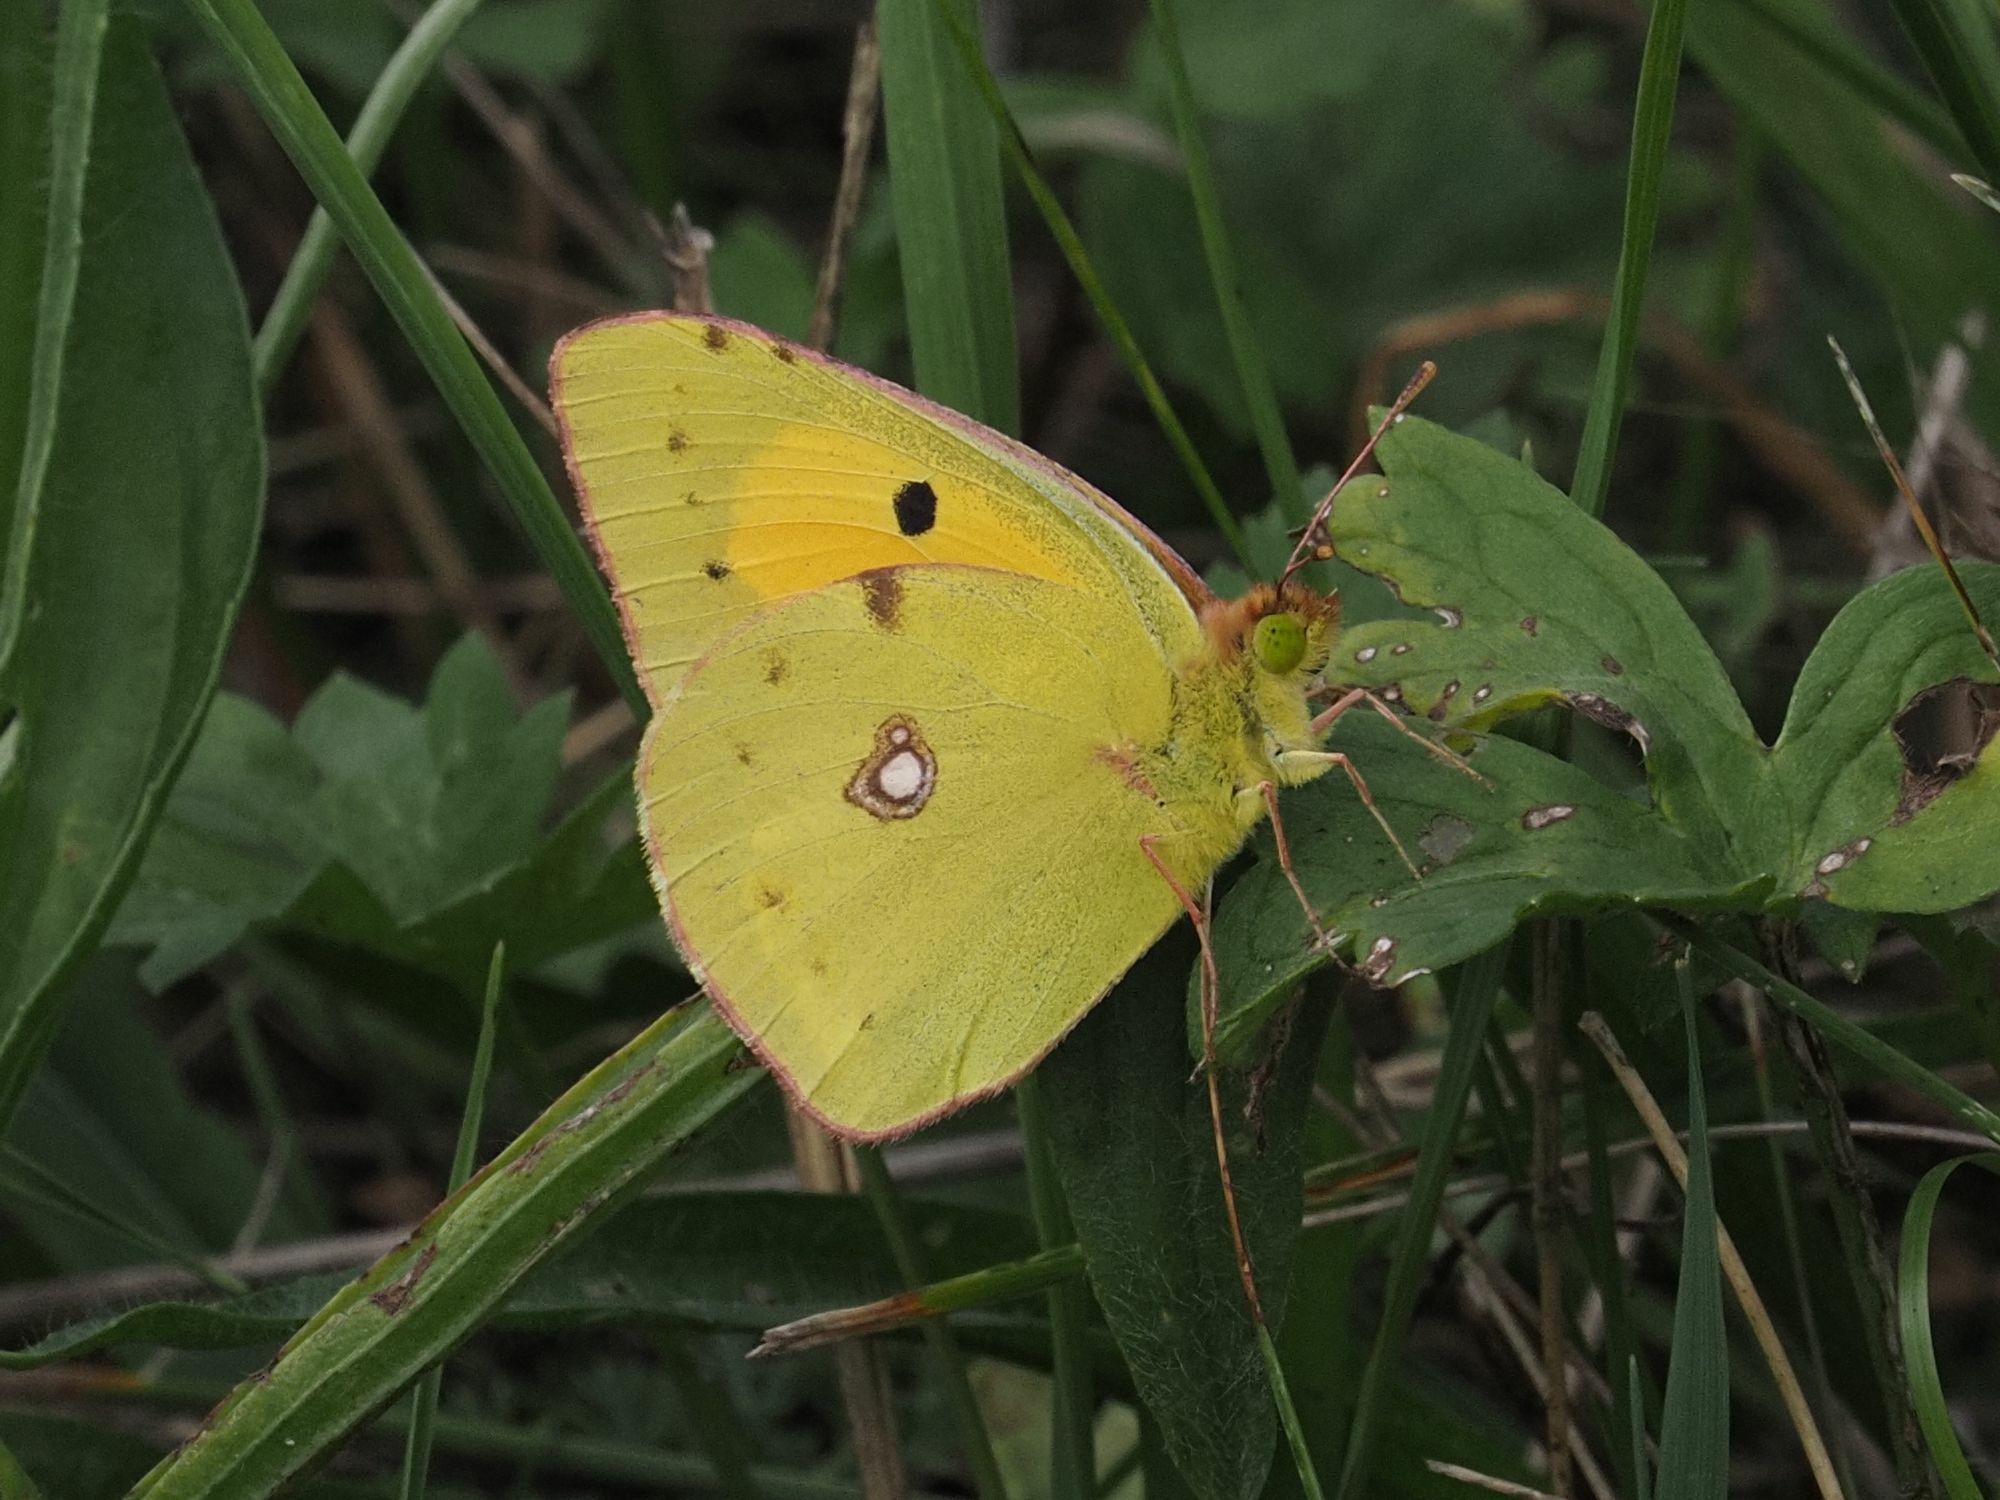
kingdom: Animalia
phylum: Arthropoda
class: Insecta
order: Lepidoptera
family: Pieridae
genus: Colias
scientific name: Colias croceus
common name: Clouded yellow
